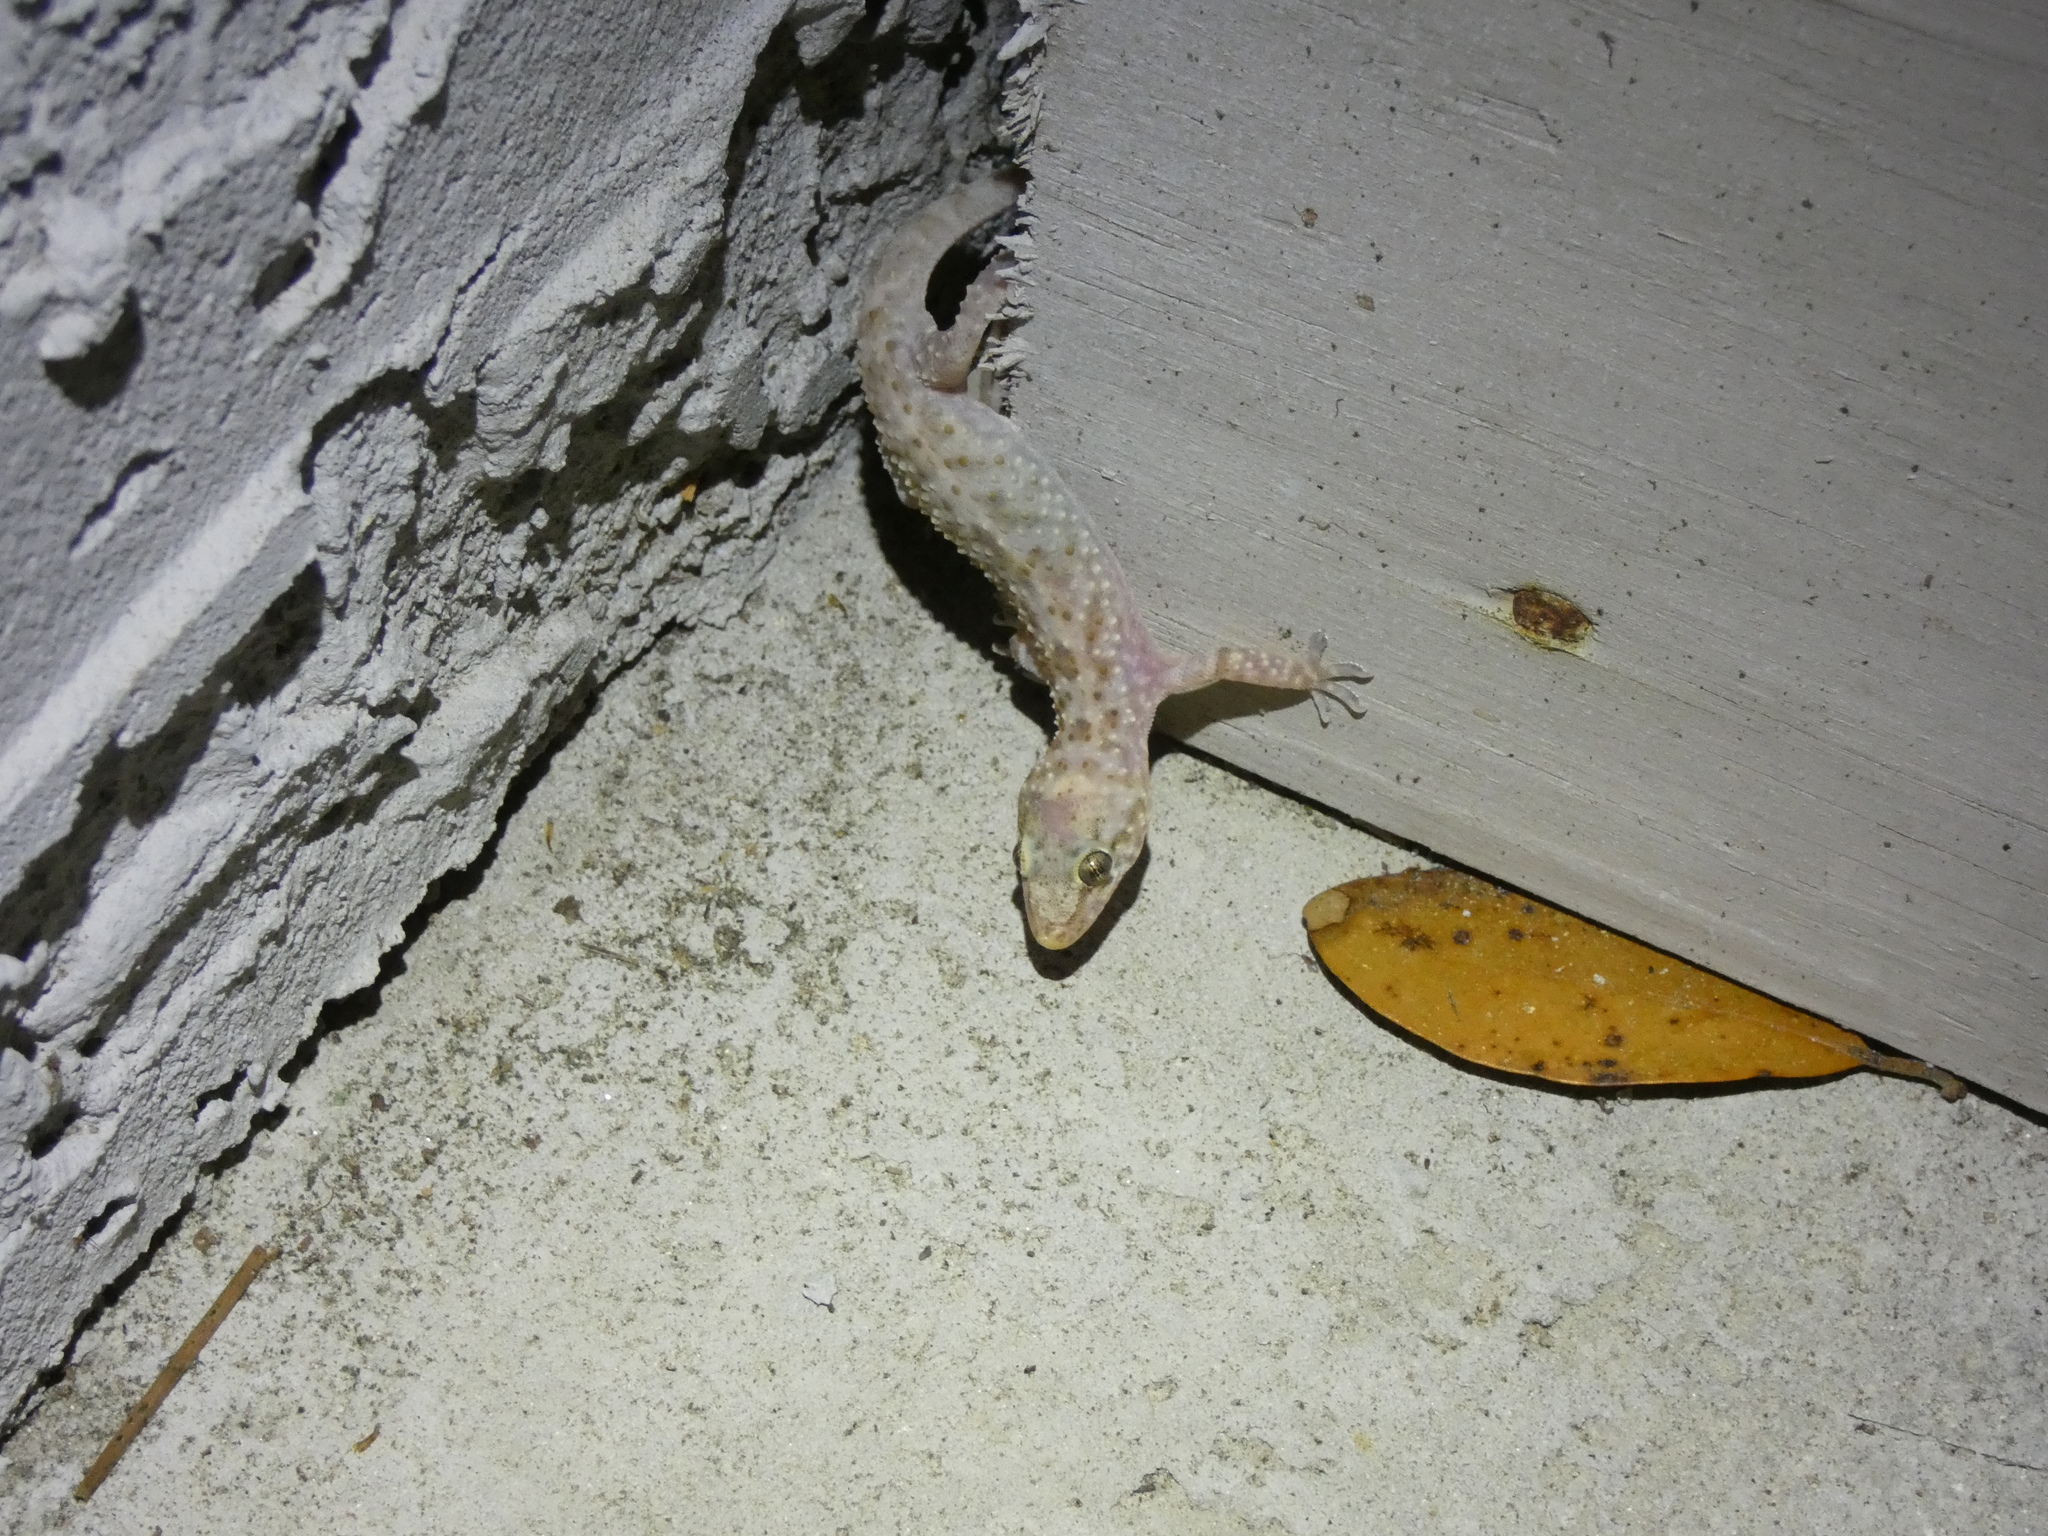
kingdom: Animalia
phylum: Chordata
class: Squamata
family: Gekkonidae
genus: Hemidactylus
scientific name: Hemidactylus turcicus
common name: Turkish gecko
